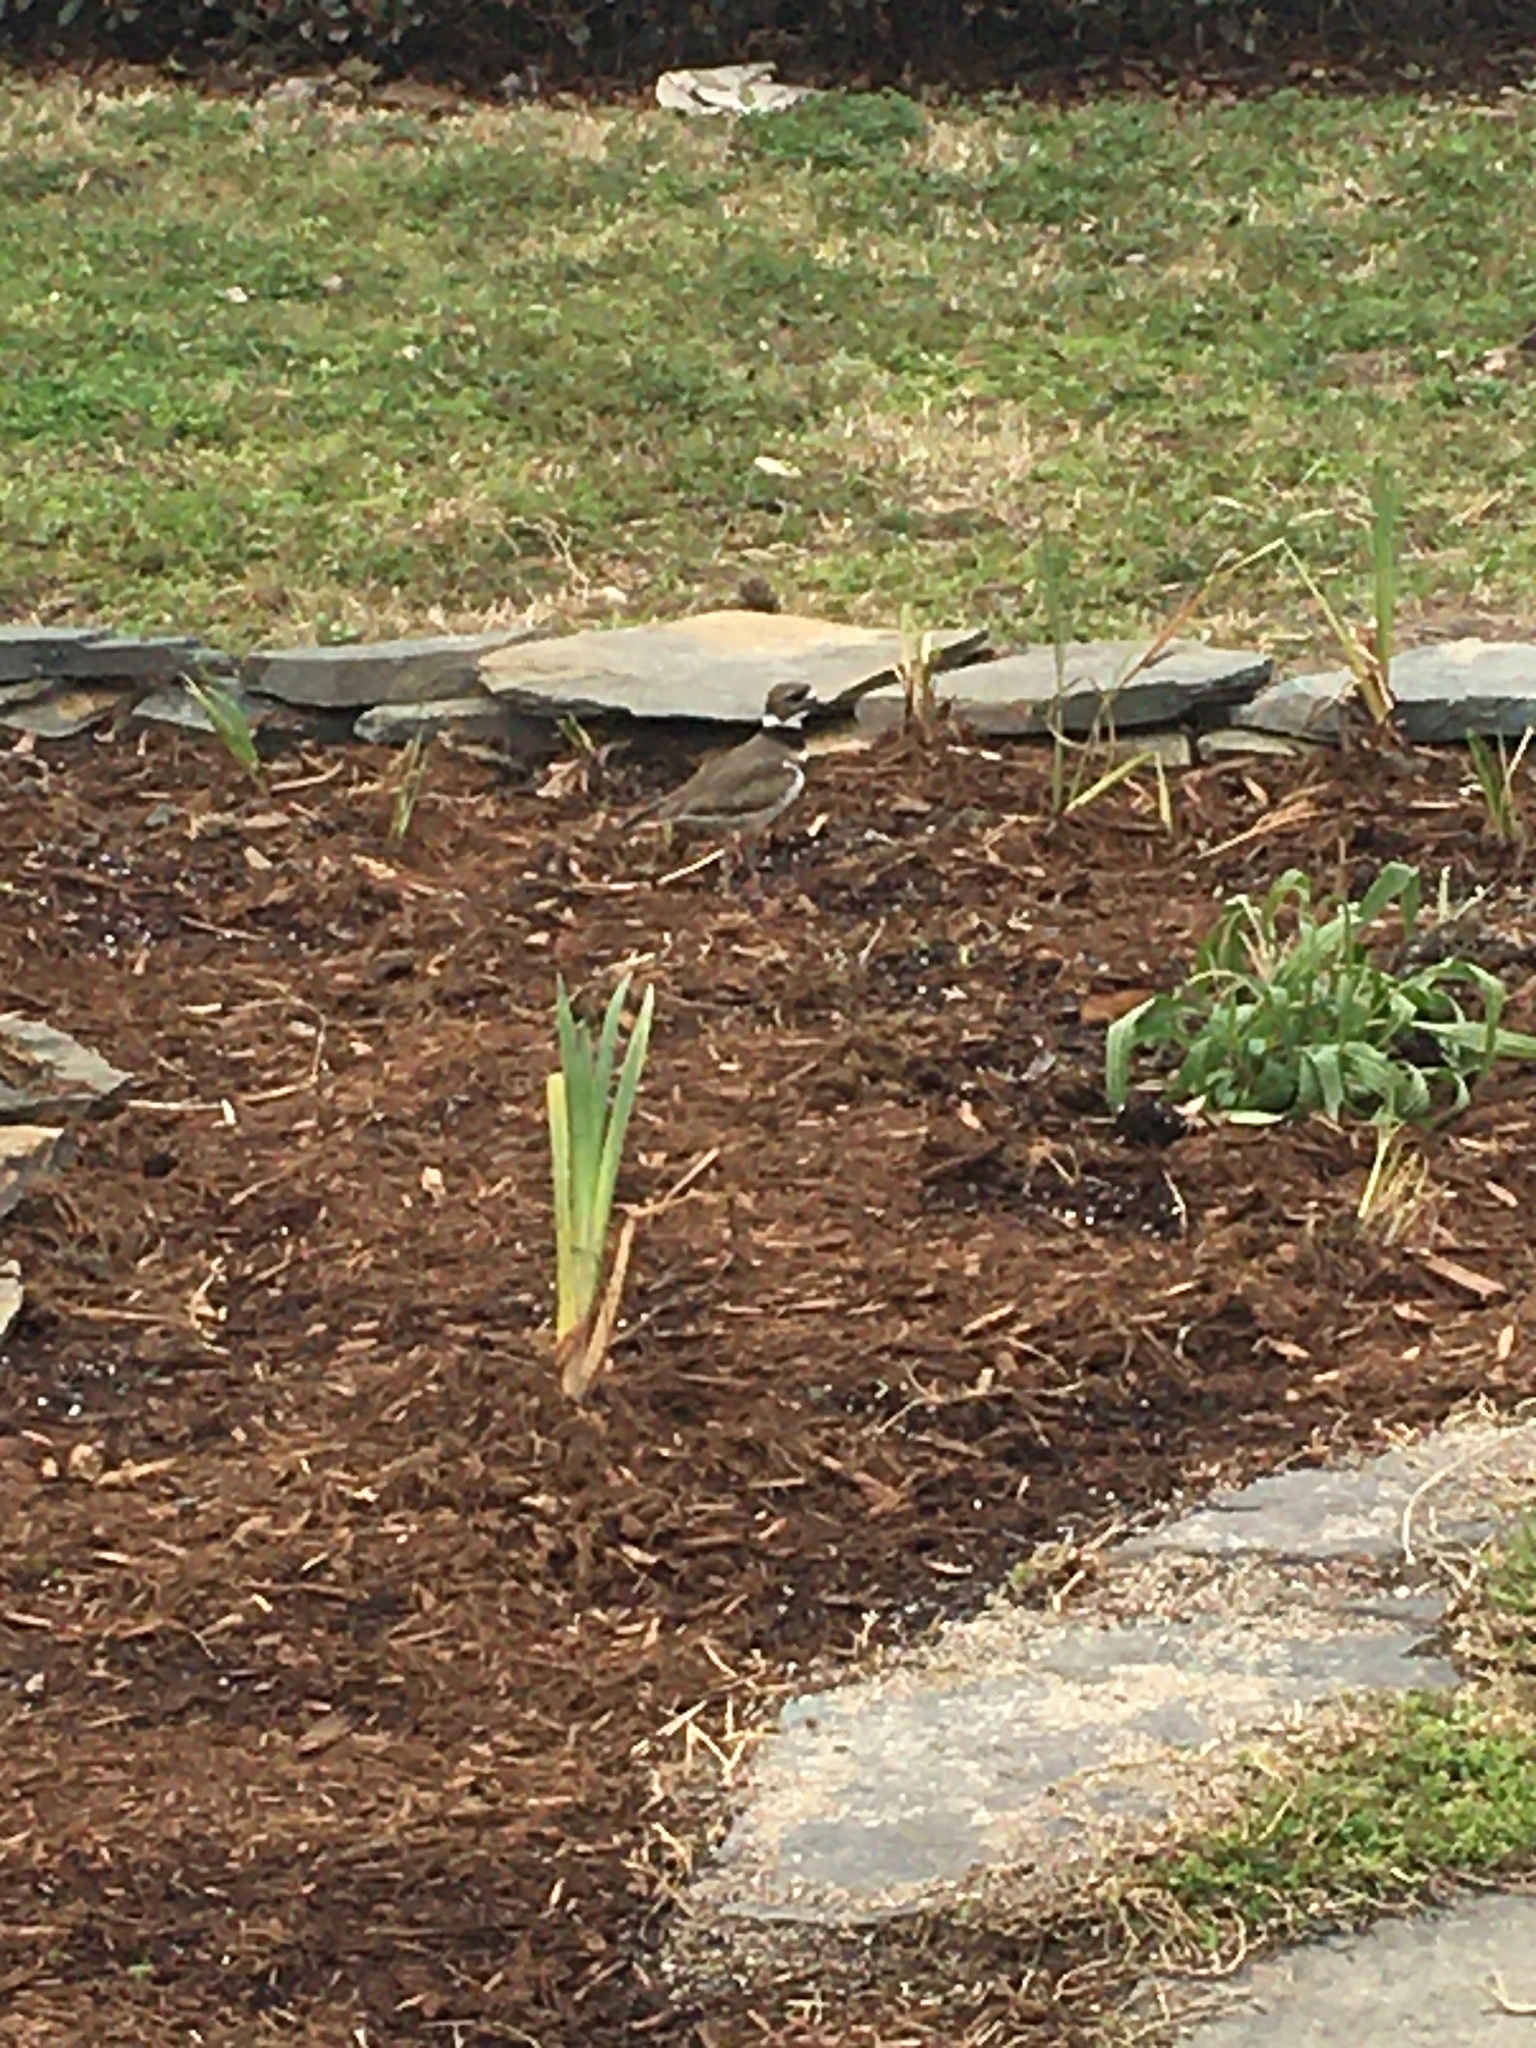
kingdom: Animalia
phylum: Chordata
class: Aves
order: Charadriiformes
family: Charadriidae
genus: Charadrius
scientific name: Charadrius vociferus
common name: Killdeer
